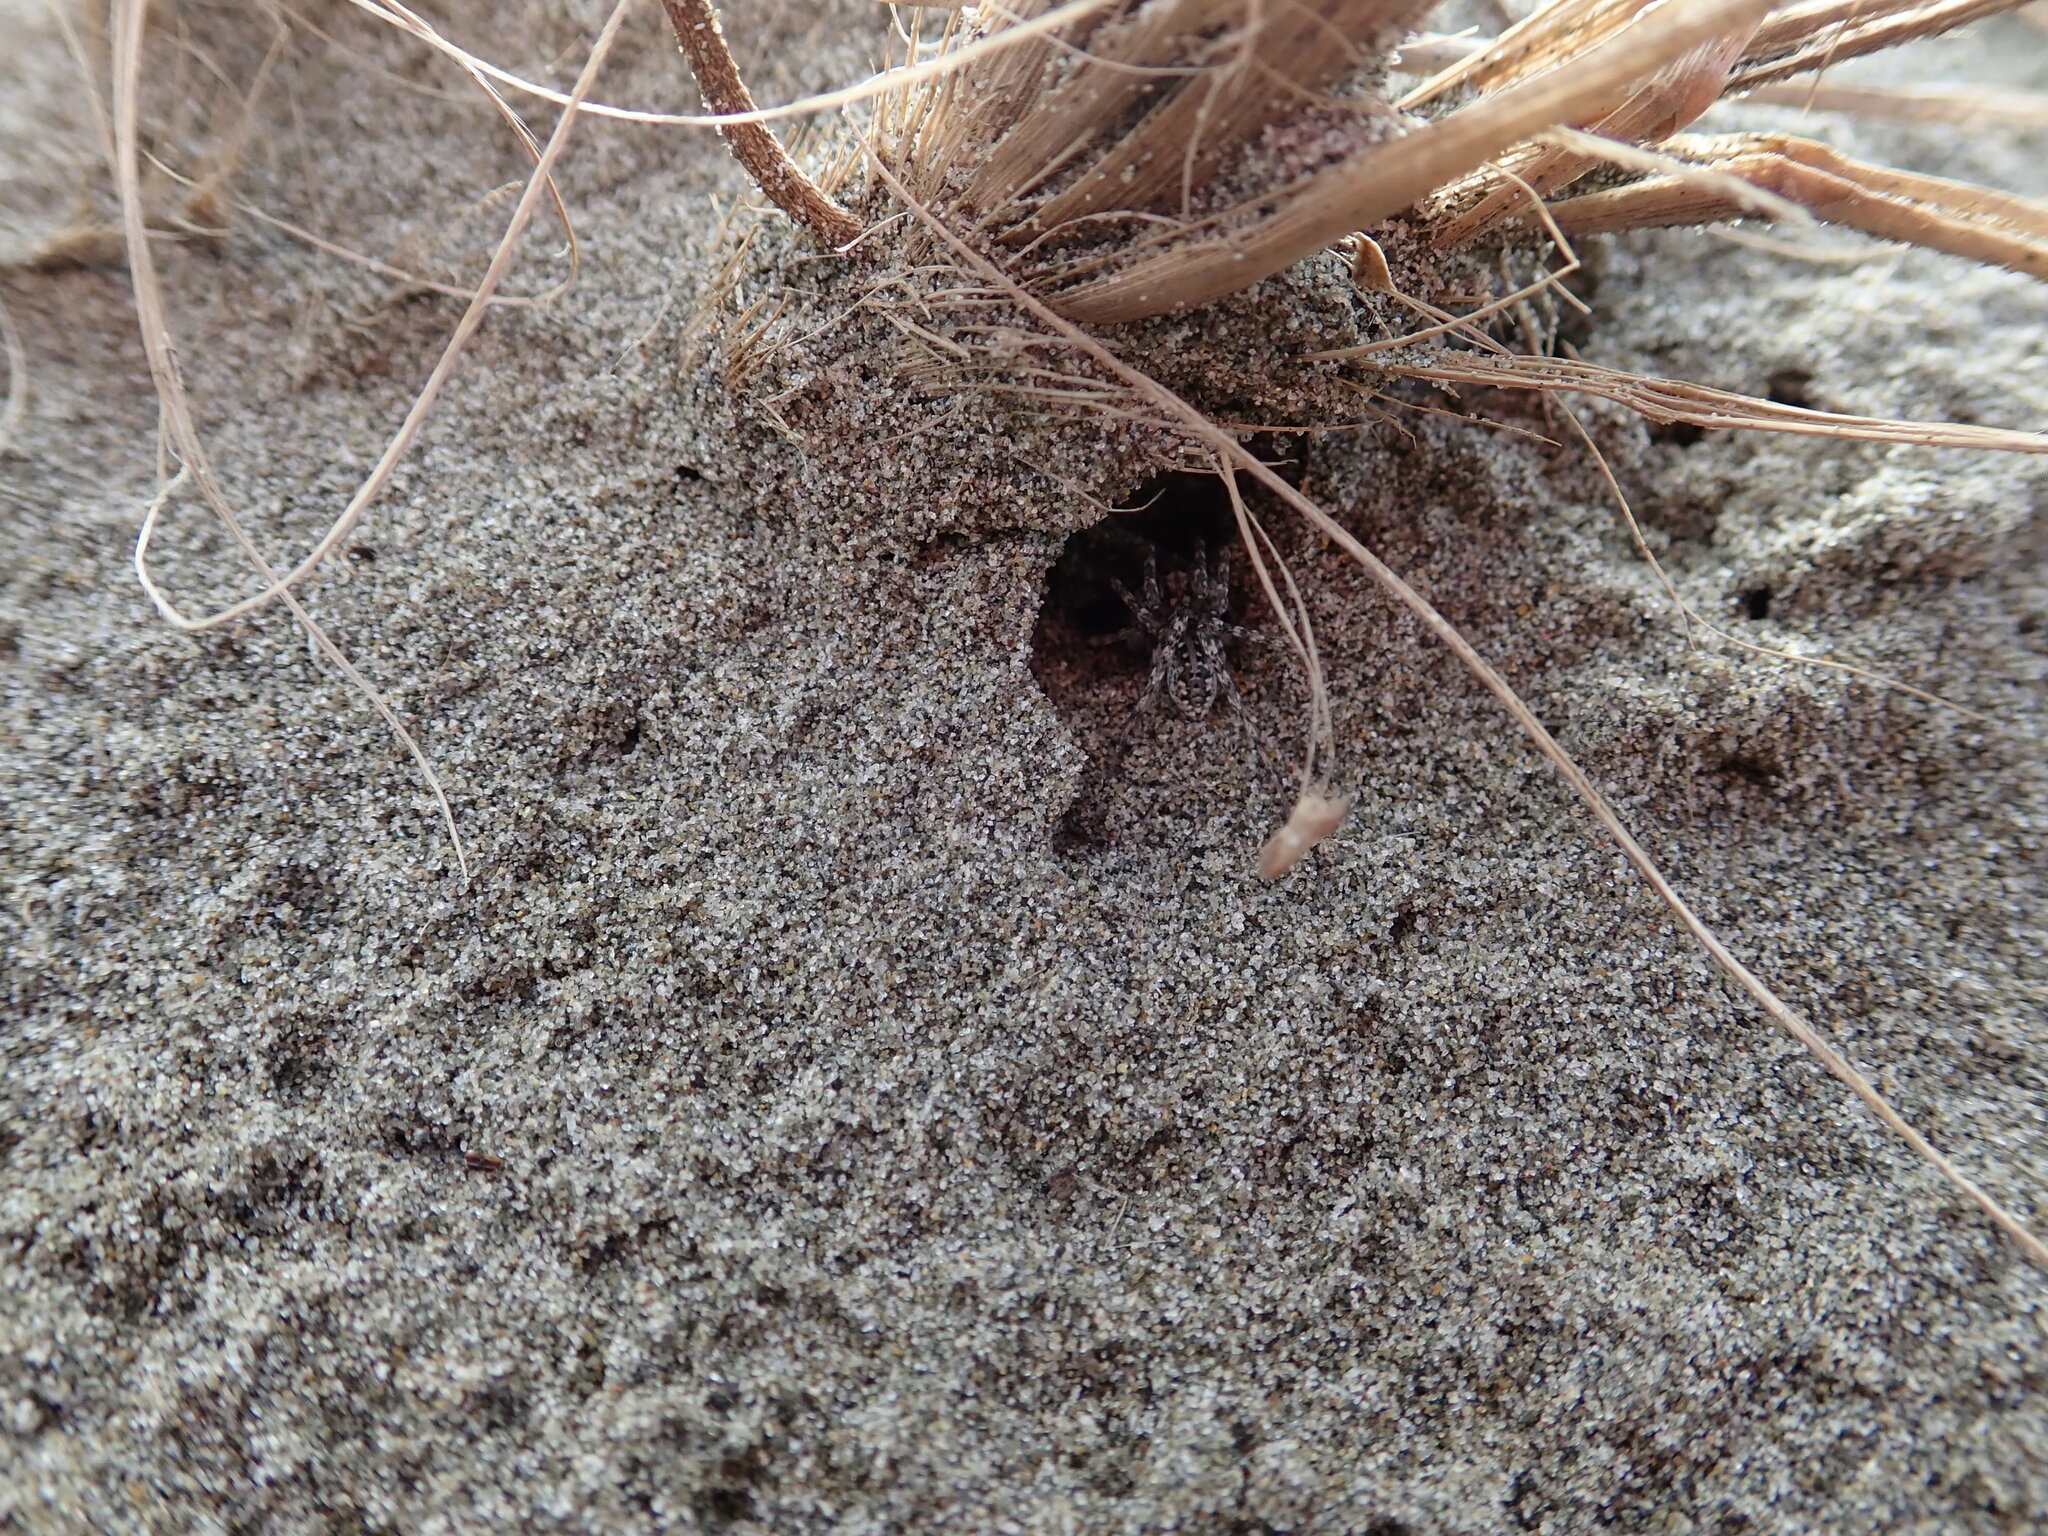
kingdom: Animalia
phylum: Arthropoda
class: Arachnida
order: Araneae
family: Lycosidae
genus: Anoteropsis
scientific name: Anoteropsis litoralis
